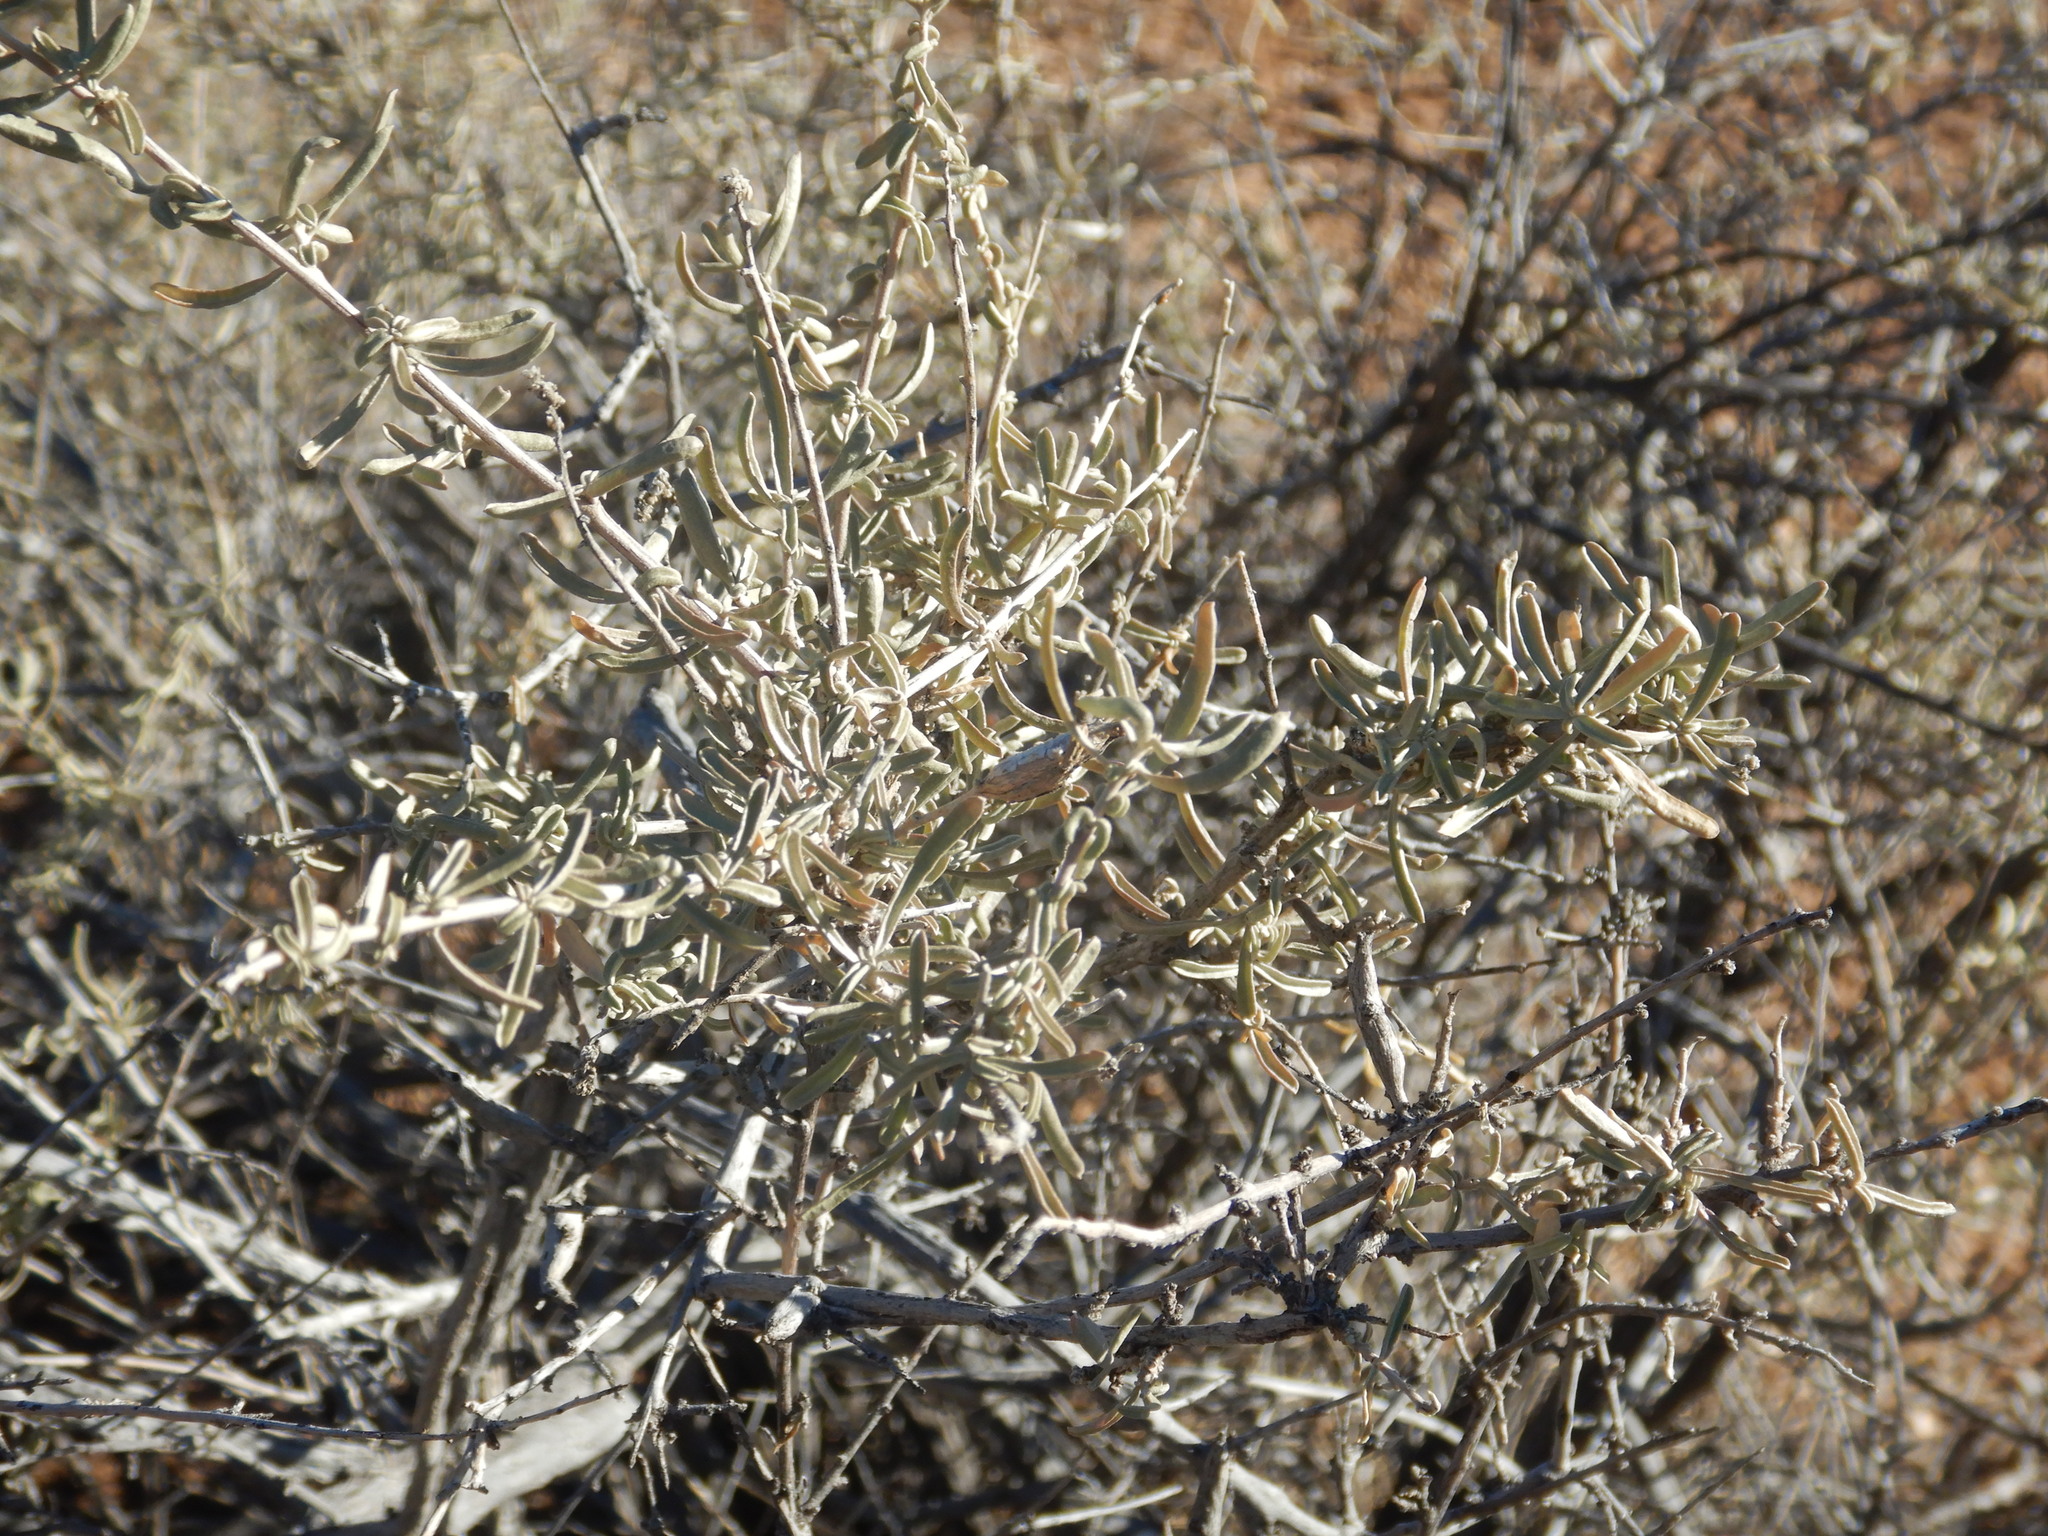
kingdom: Plantae
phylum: Tracheophyta
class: Magnoliopsida
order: Caryophyllales
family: Amaranthaceae
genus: Atriplex
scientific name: Atriplex canescens
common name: Four-wing saltbush
